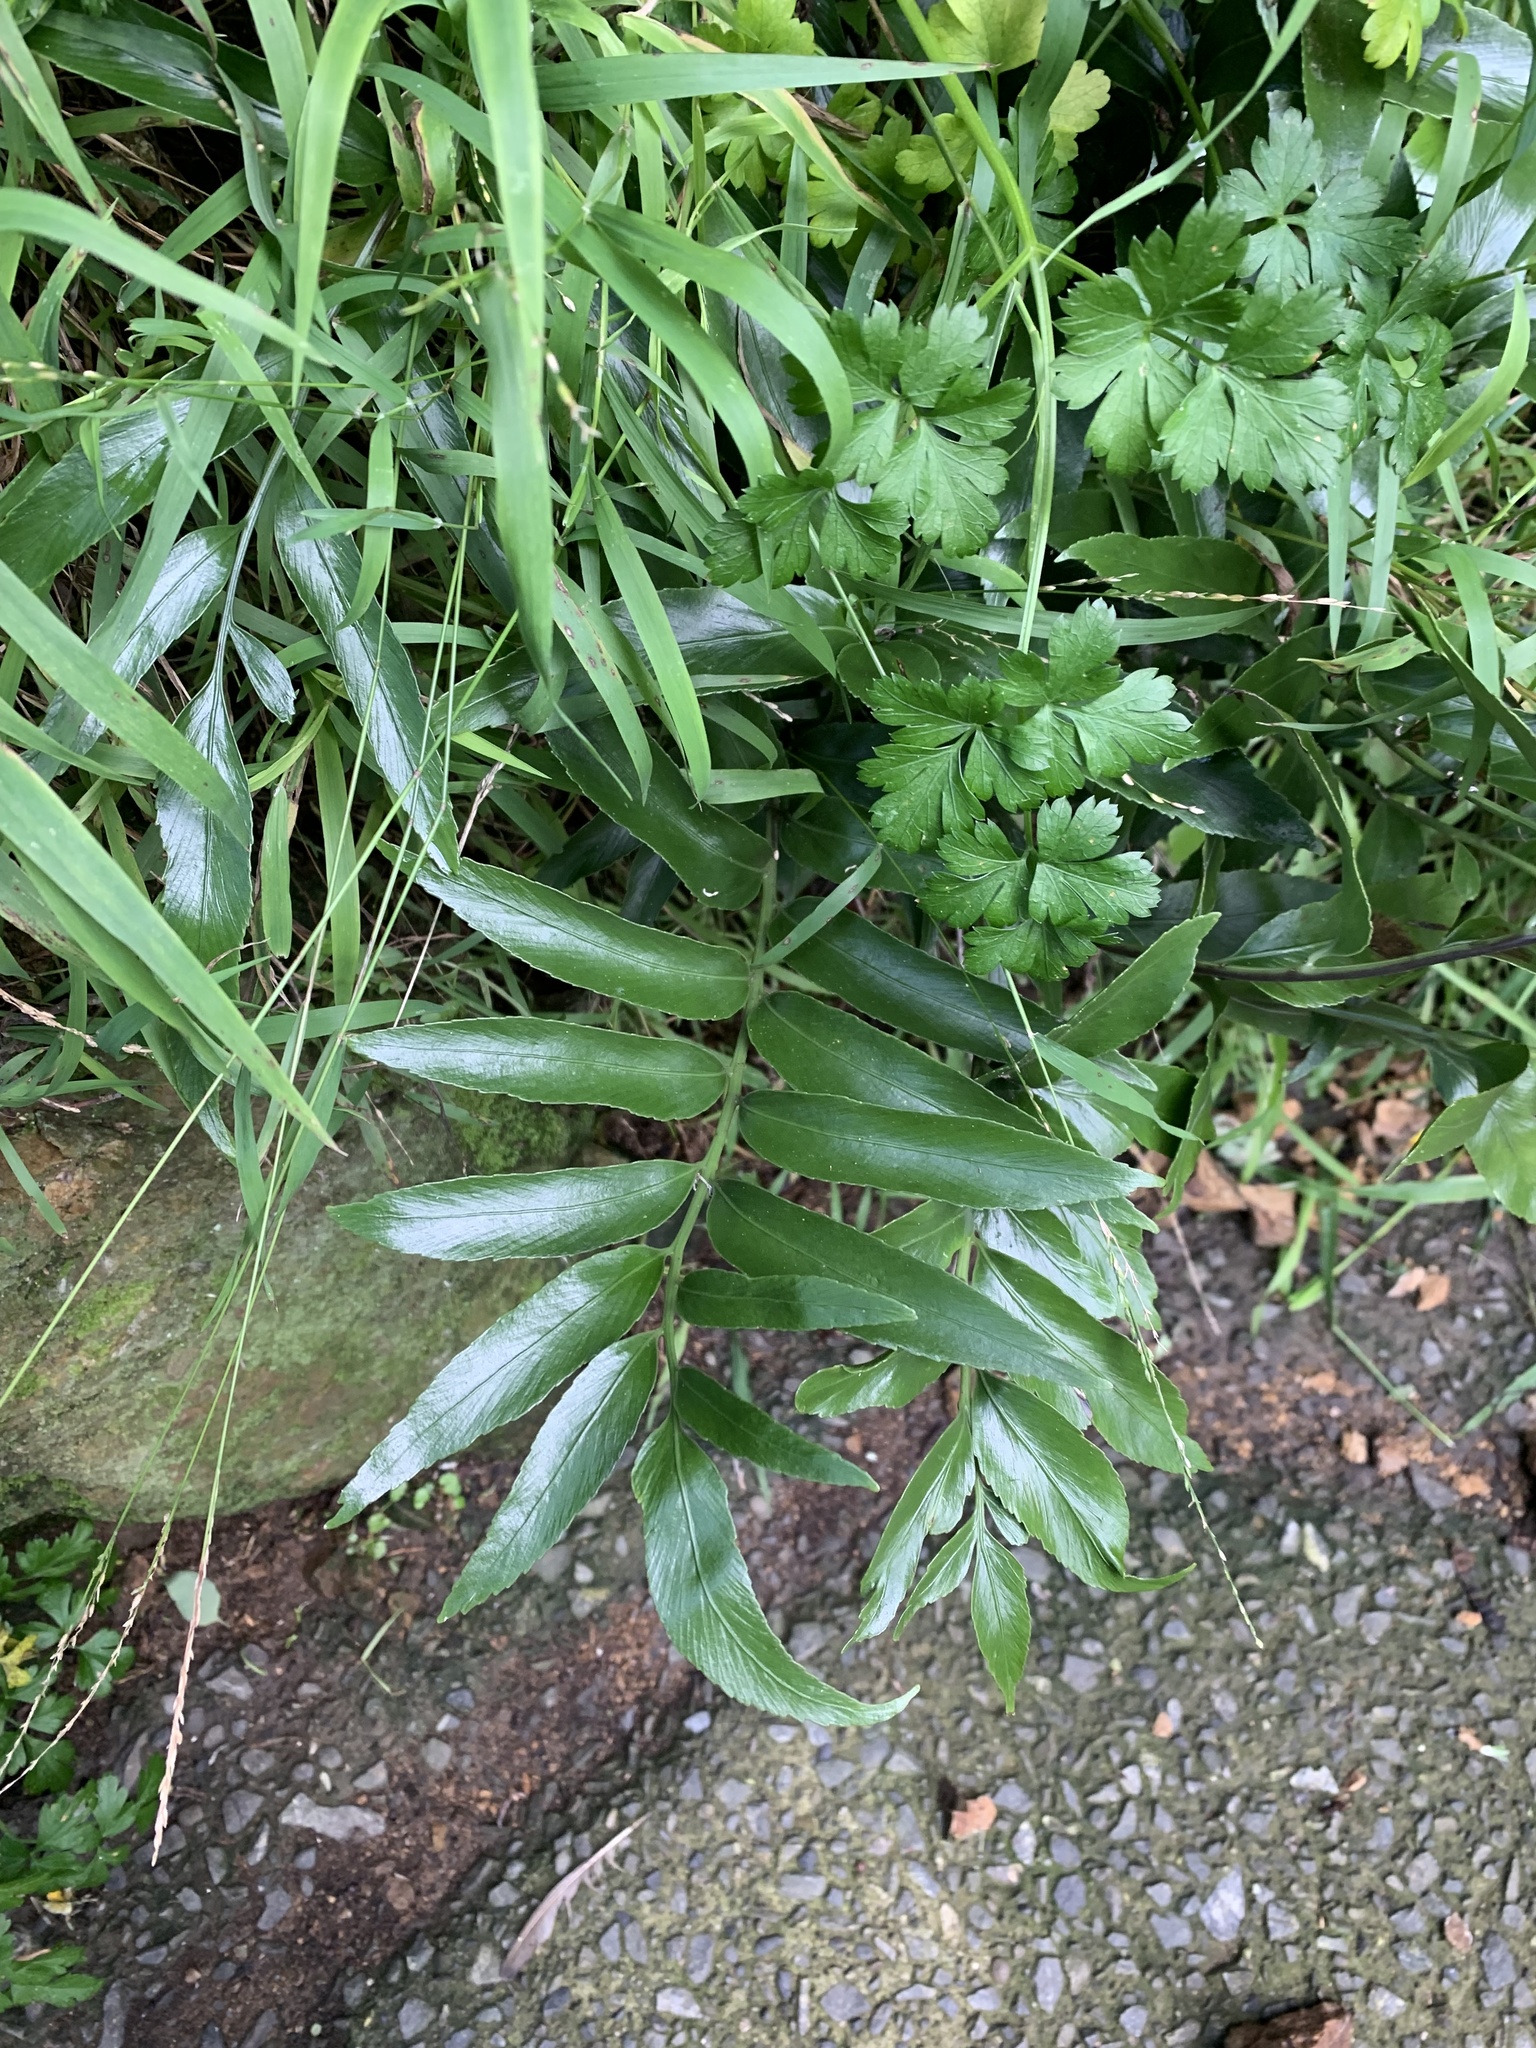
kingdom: Plantae
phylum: Tracheophyta
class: Polypodiopsida
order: Polypodiales
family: Aspleniaceae
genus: Asplenium
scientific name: Asplenium oblongifolium
